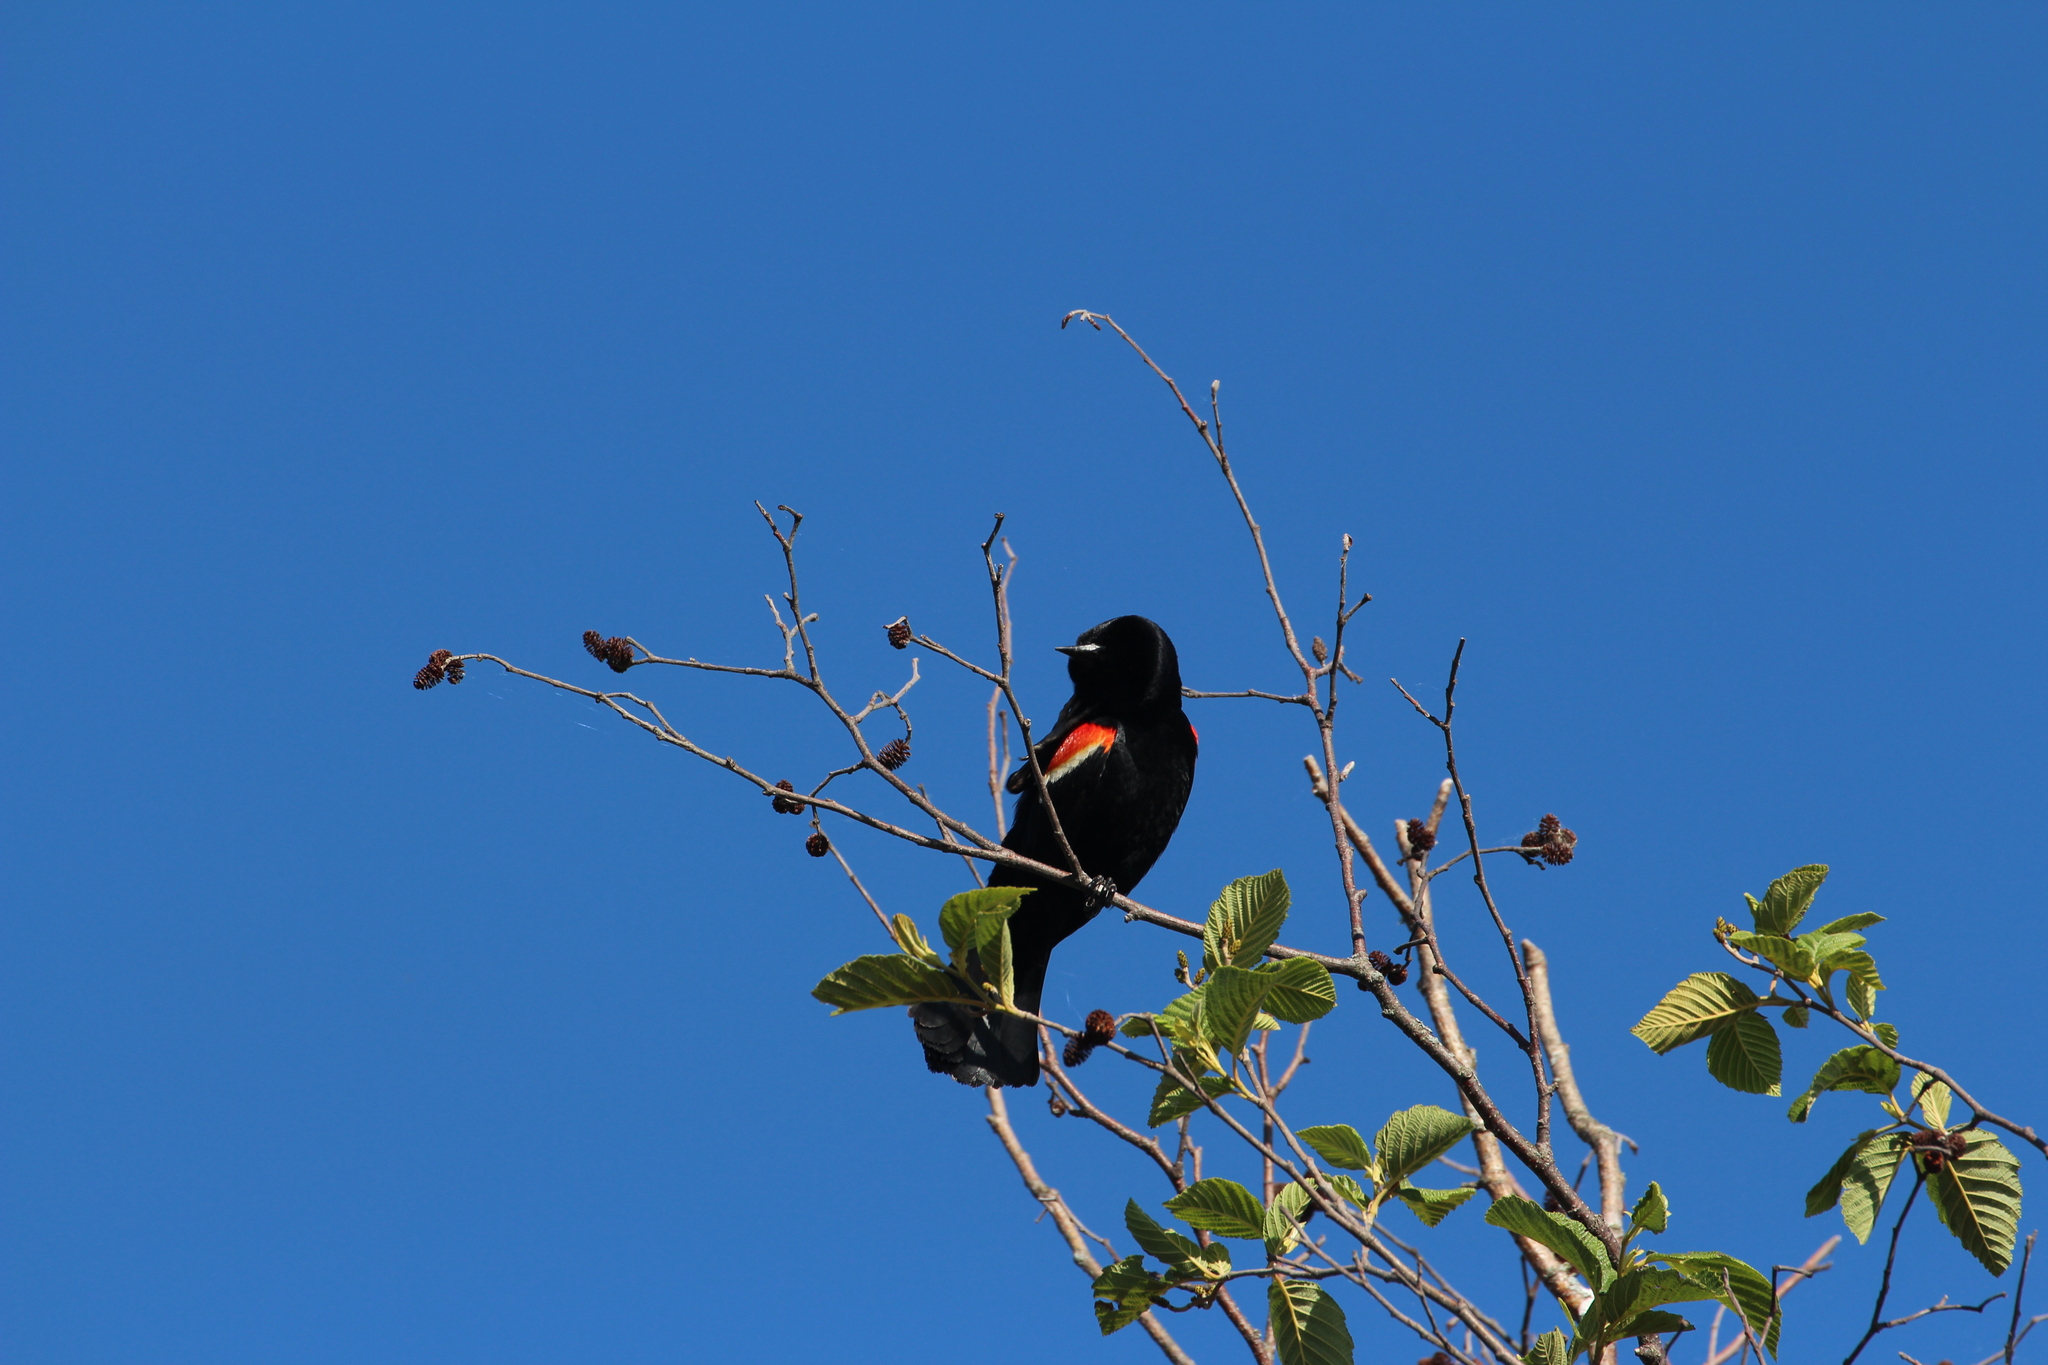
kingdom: Animalia
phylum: Chordata
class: Aves
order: Passeriformes
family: Icteridae
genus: Agelaius
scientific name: Agelaius phoeniceus
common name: Red-winged blackbird
